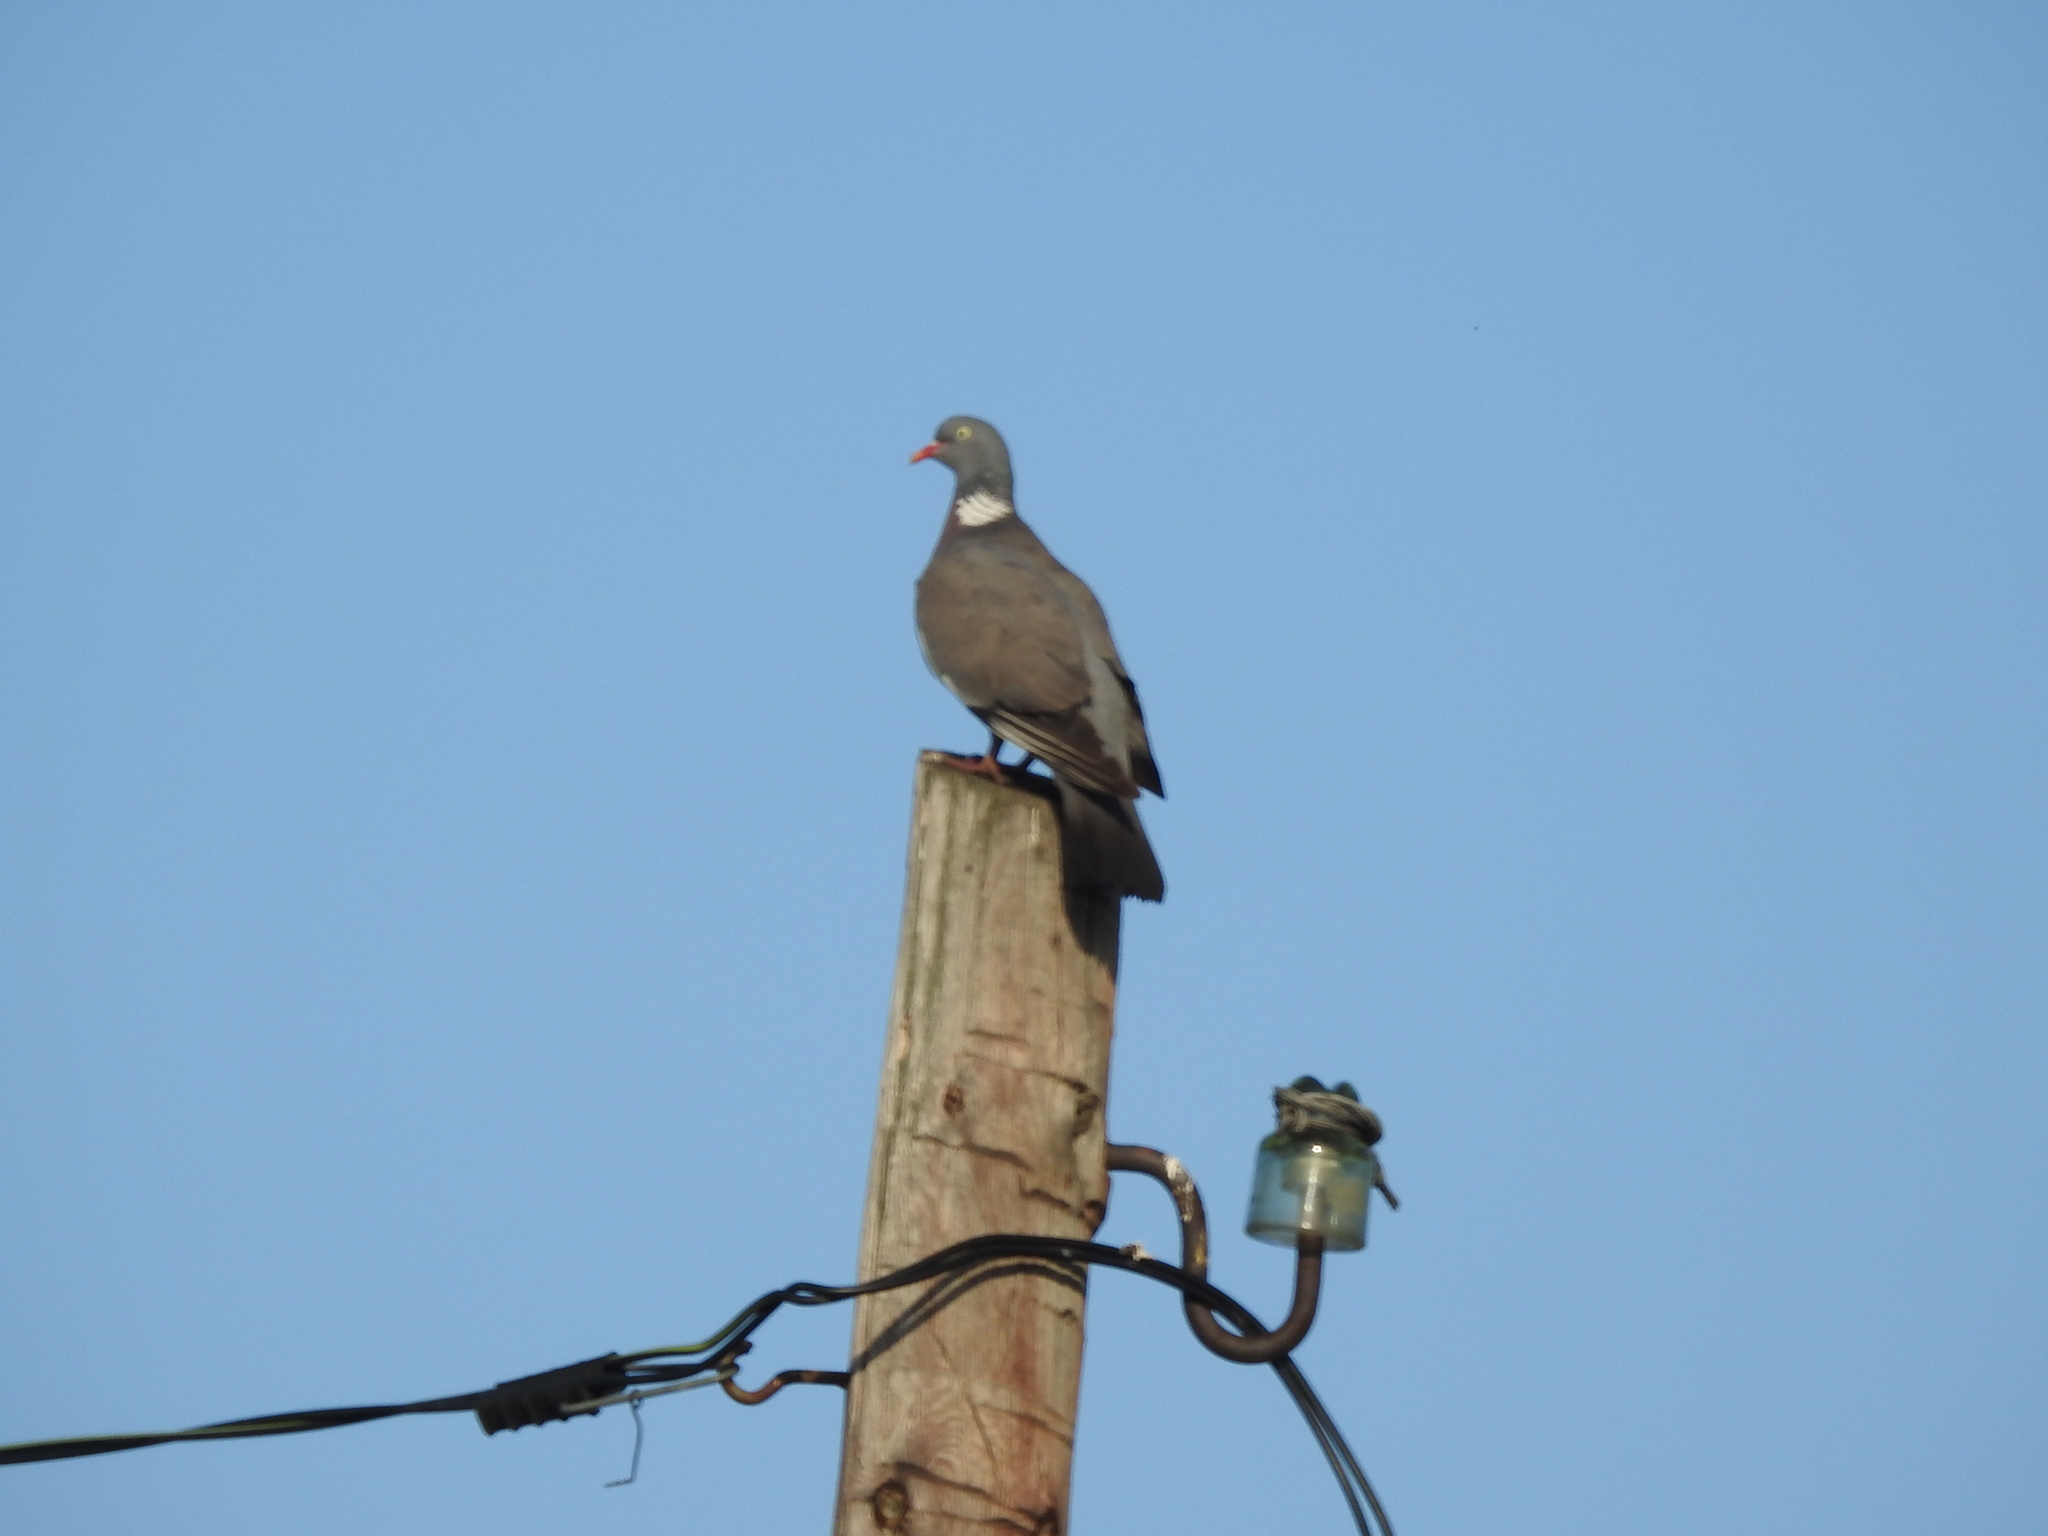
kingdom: Animalia
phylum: Chordata
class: Aves
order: Columbiformes
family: Columbidae
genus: Columba
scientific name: Columba palumbus
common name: Common wood pigeon
